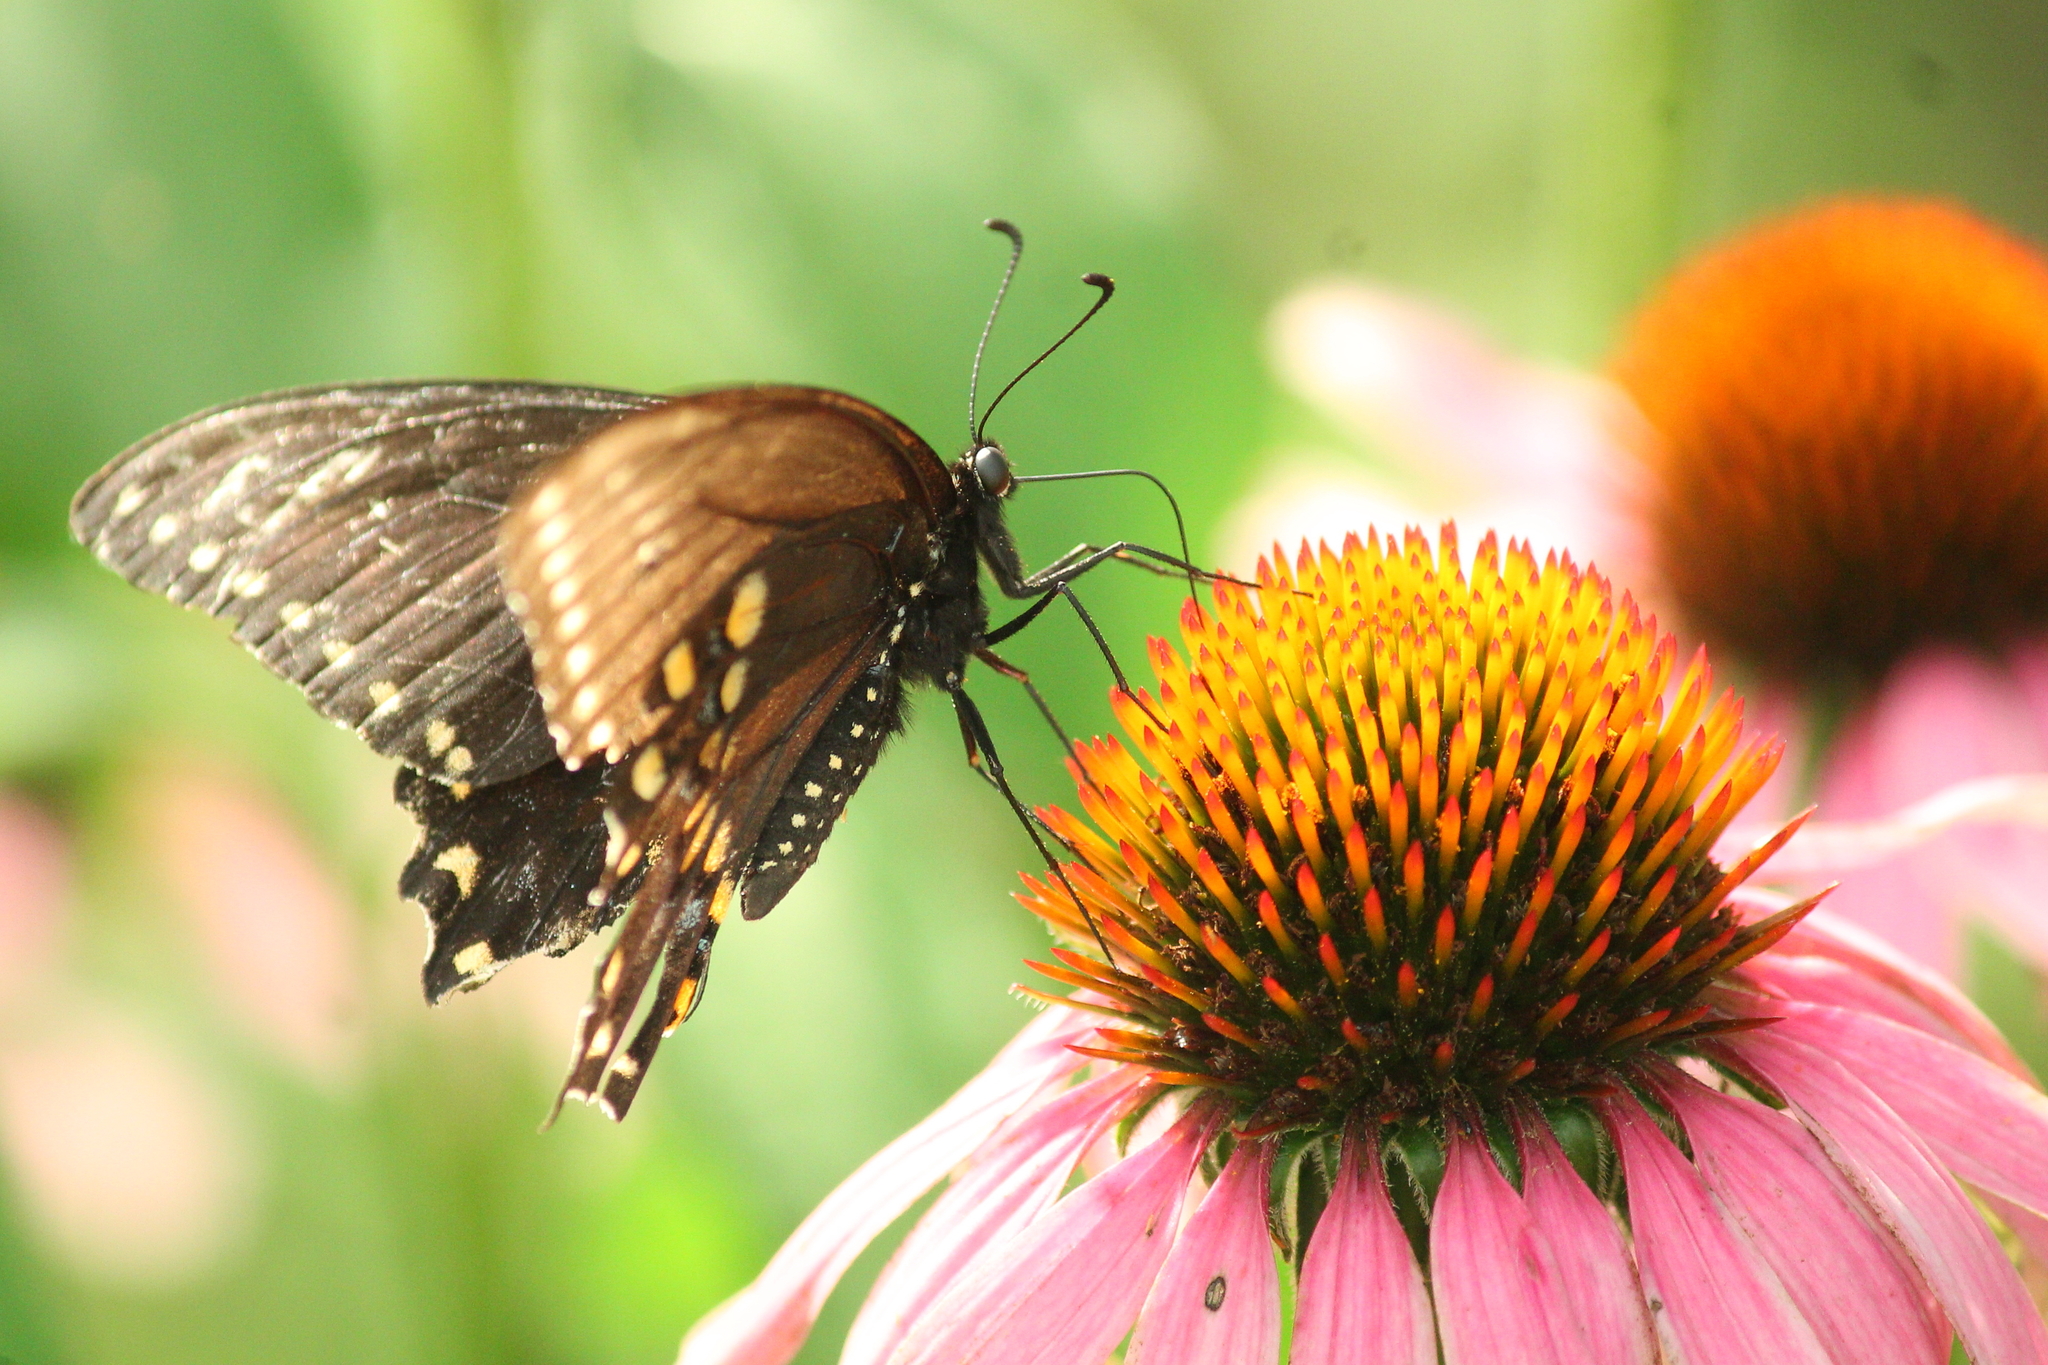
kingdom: Animalia
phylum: Arthropoda
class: Insecta
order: Lepidoptera
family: Papilionidae
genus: Papilio
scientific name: Papilio polyxenes
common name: Black swallowtail
